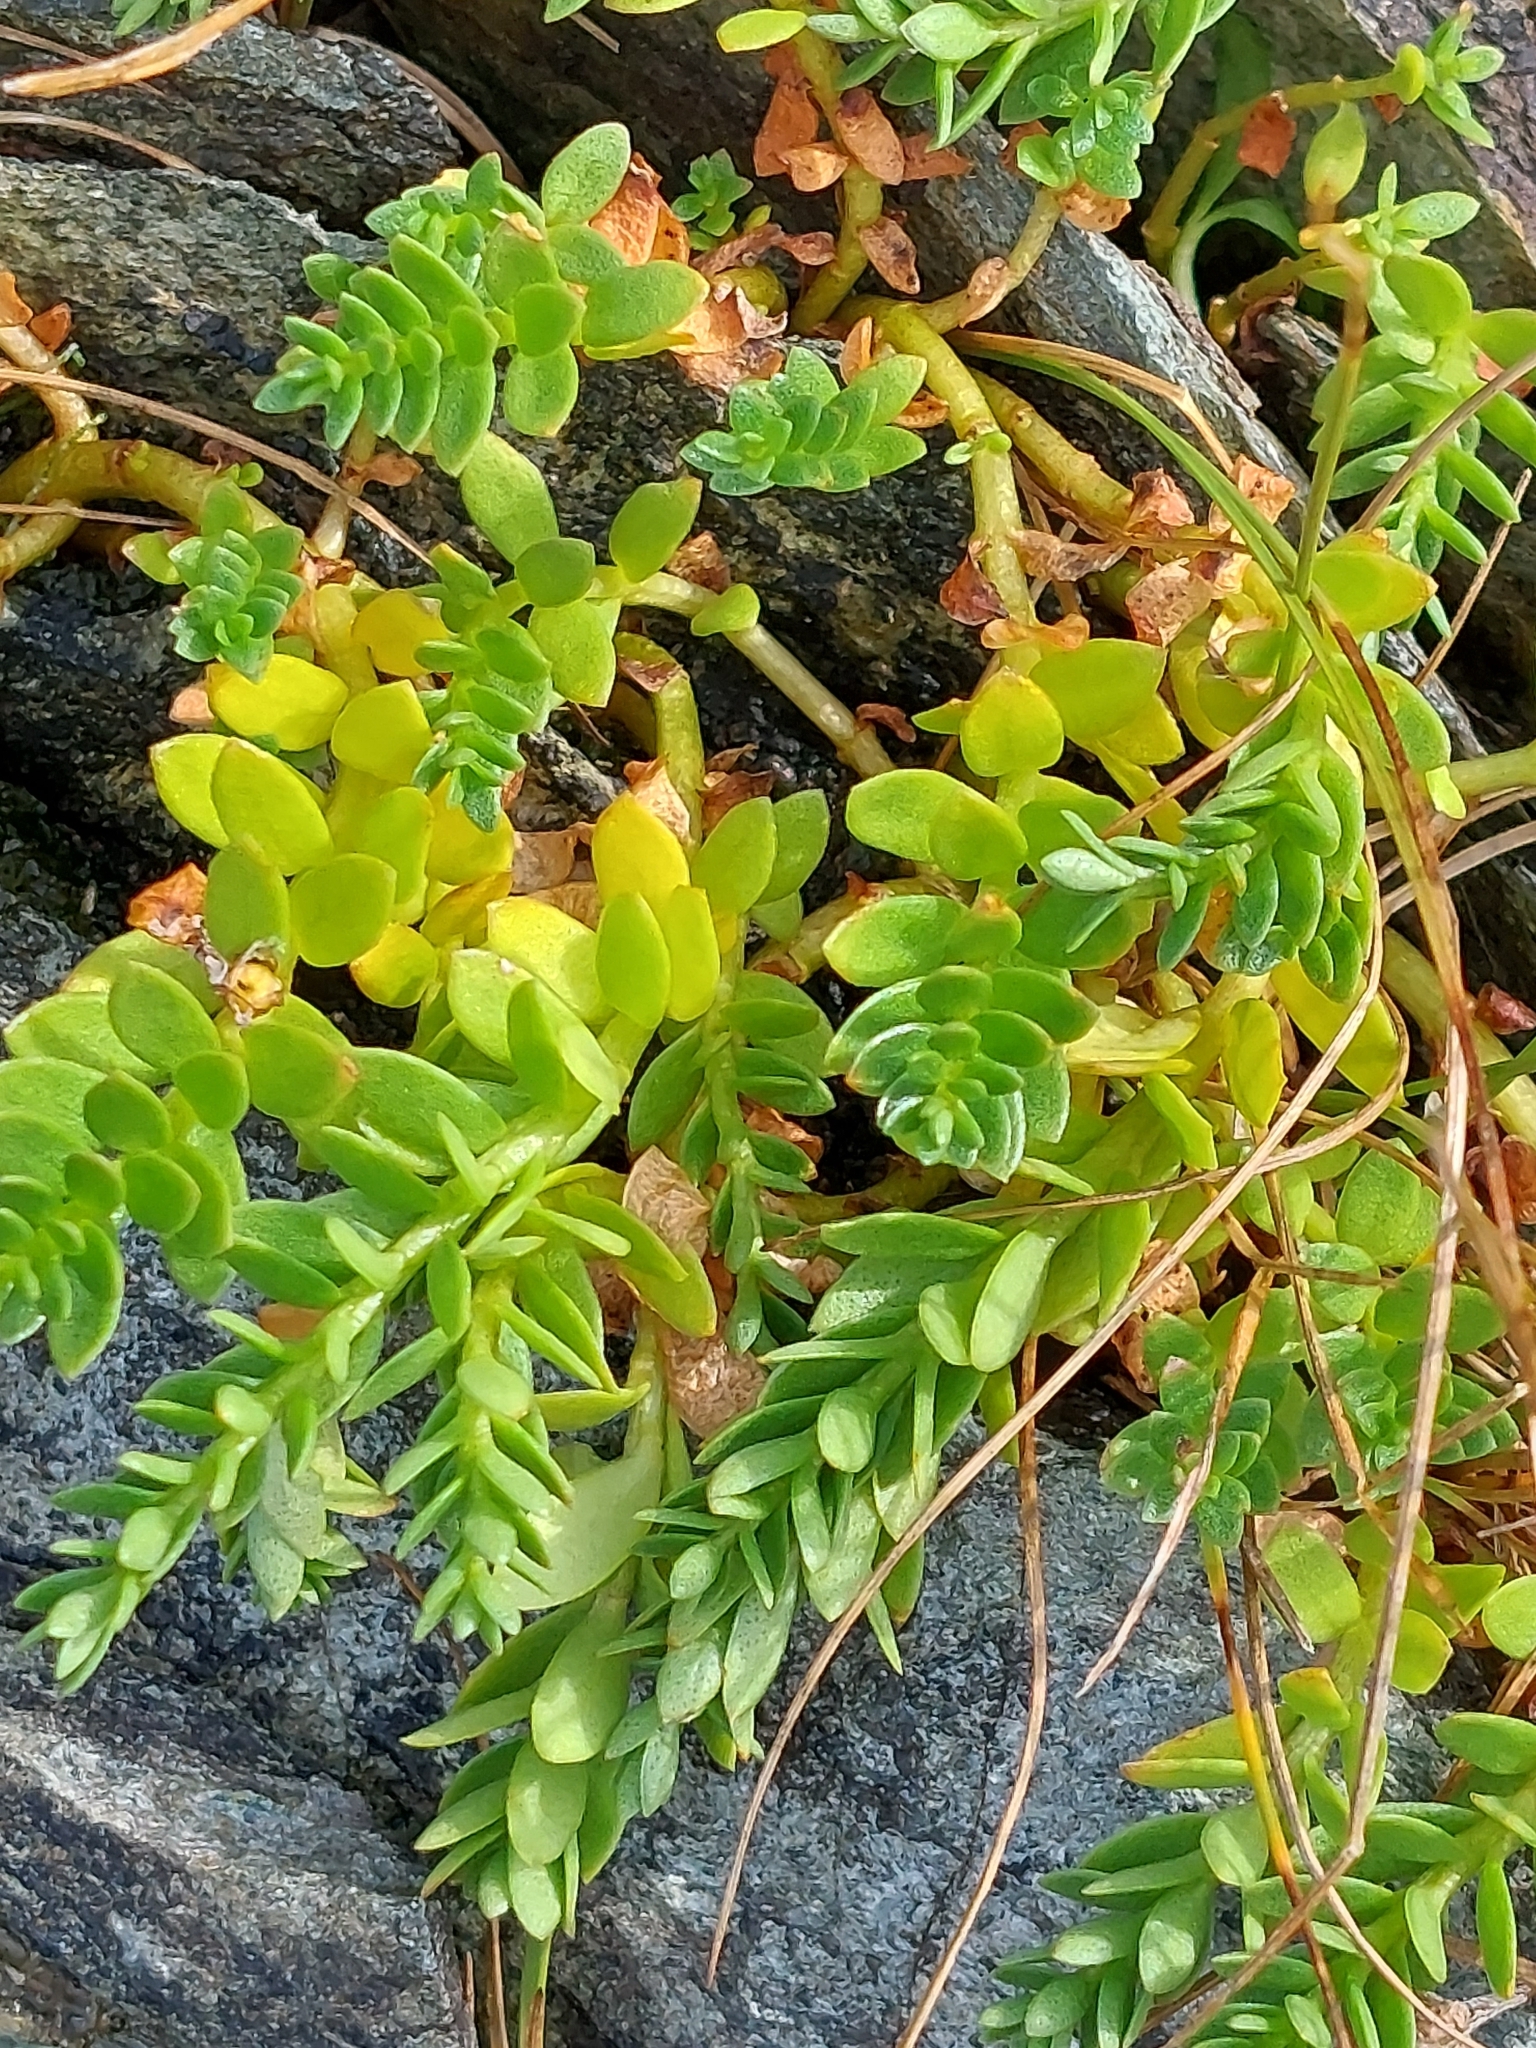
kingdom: Plantae
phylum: Tracheophyta
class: Magnoliopsida
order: Ericales
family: Primulaceae
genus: Lysimachia
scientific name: Lysimachia maritima
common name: Sea milkwort
